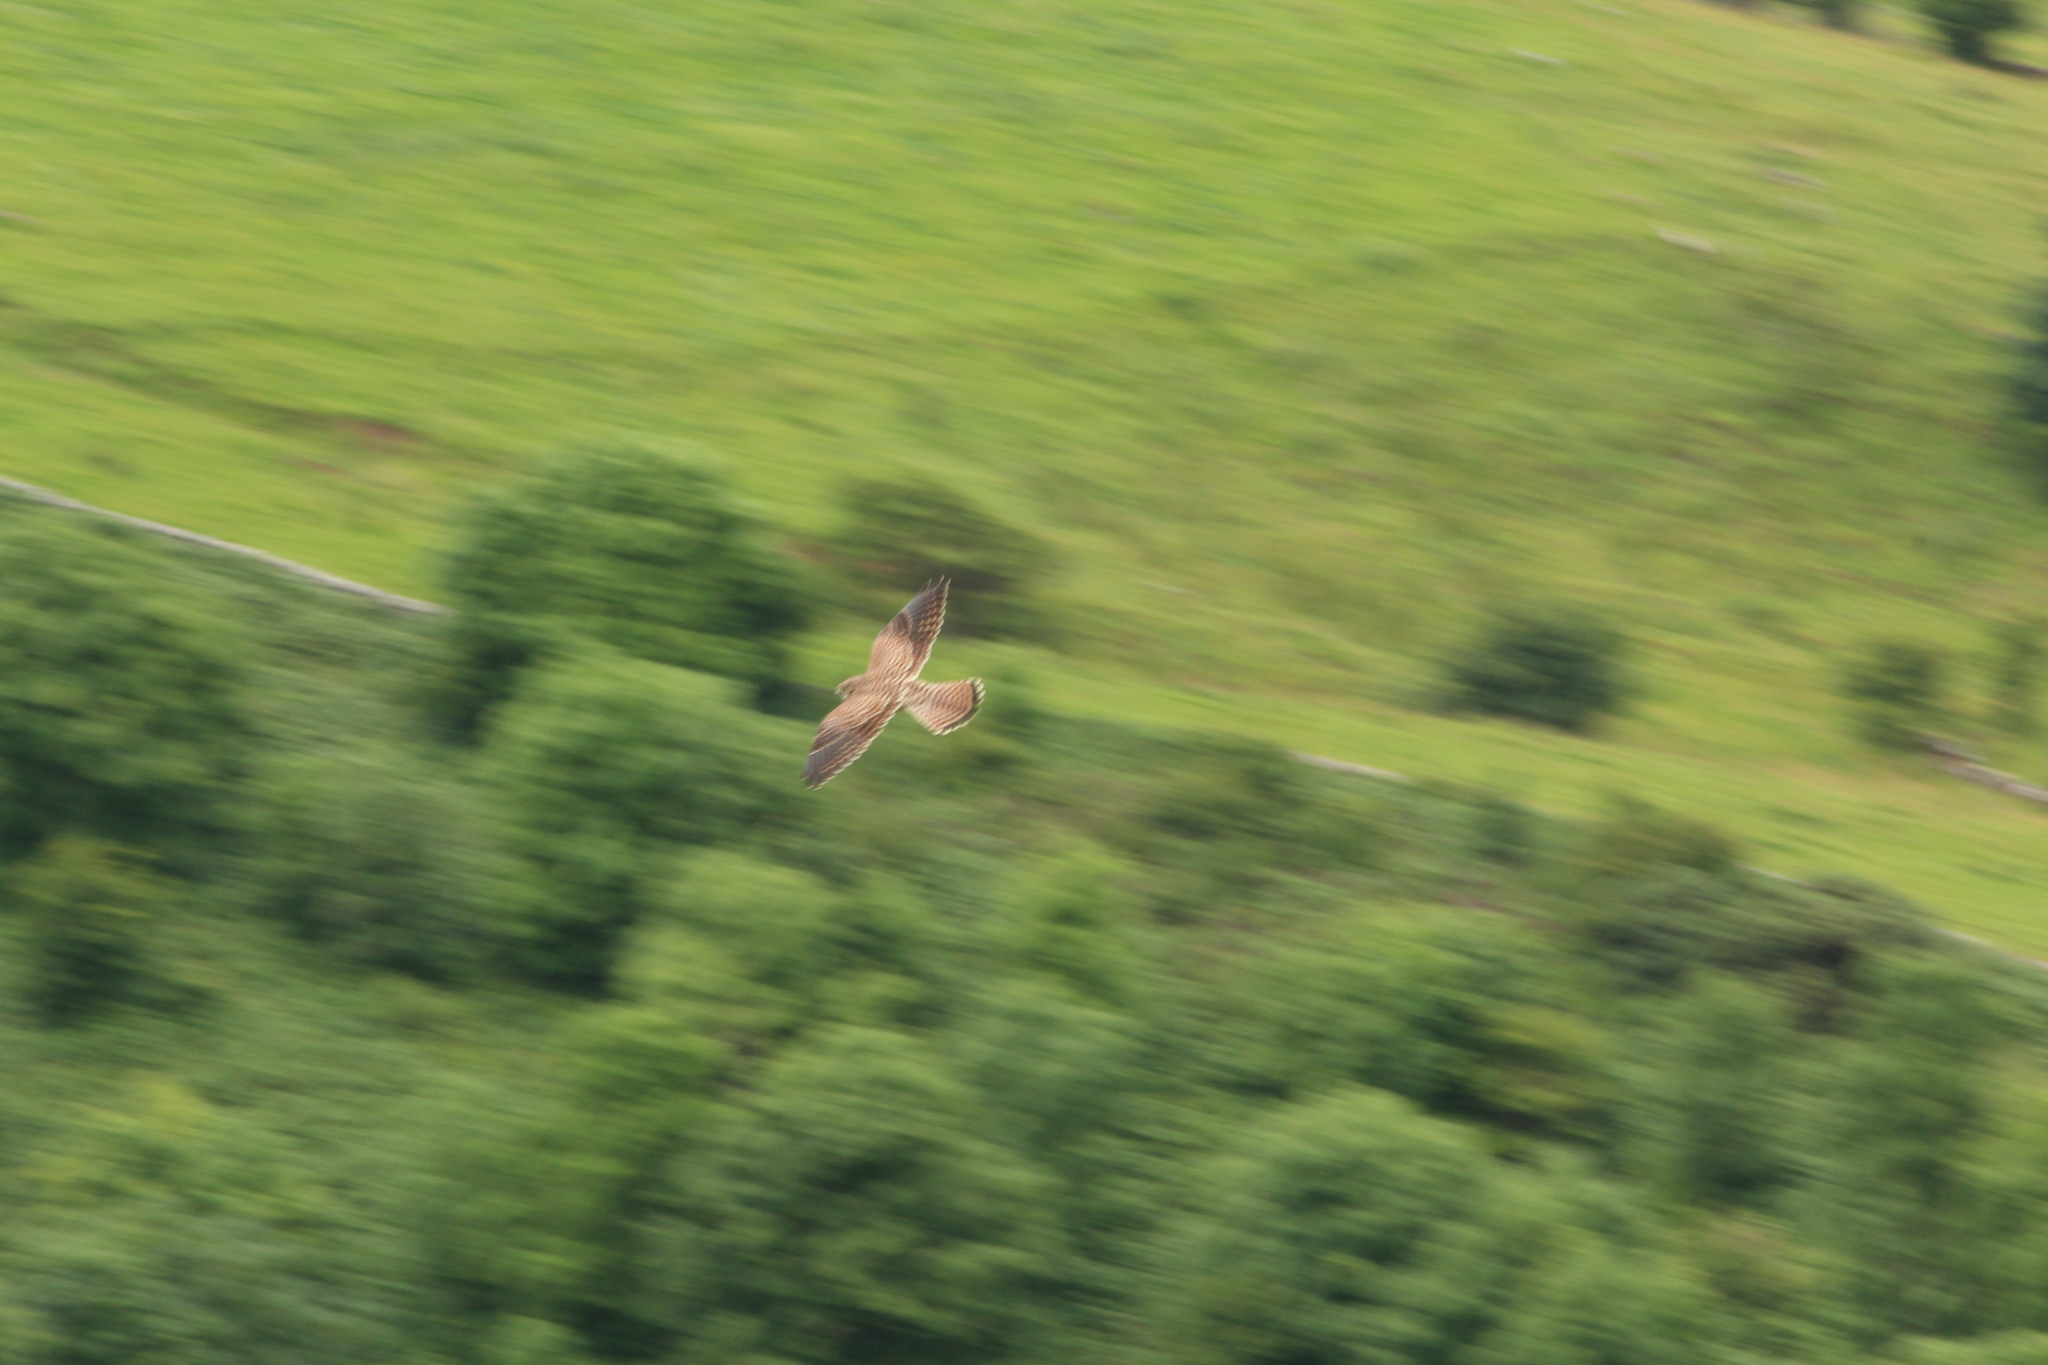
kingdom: Animalia
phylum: Chordata
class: Aves
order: Falconiformes
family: Falconidae
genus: Falco
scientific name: Falco tinnunculus
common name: Common kestrel
